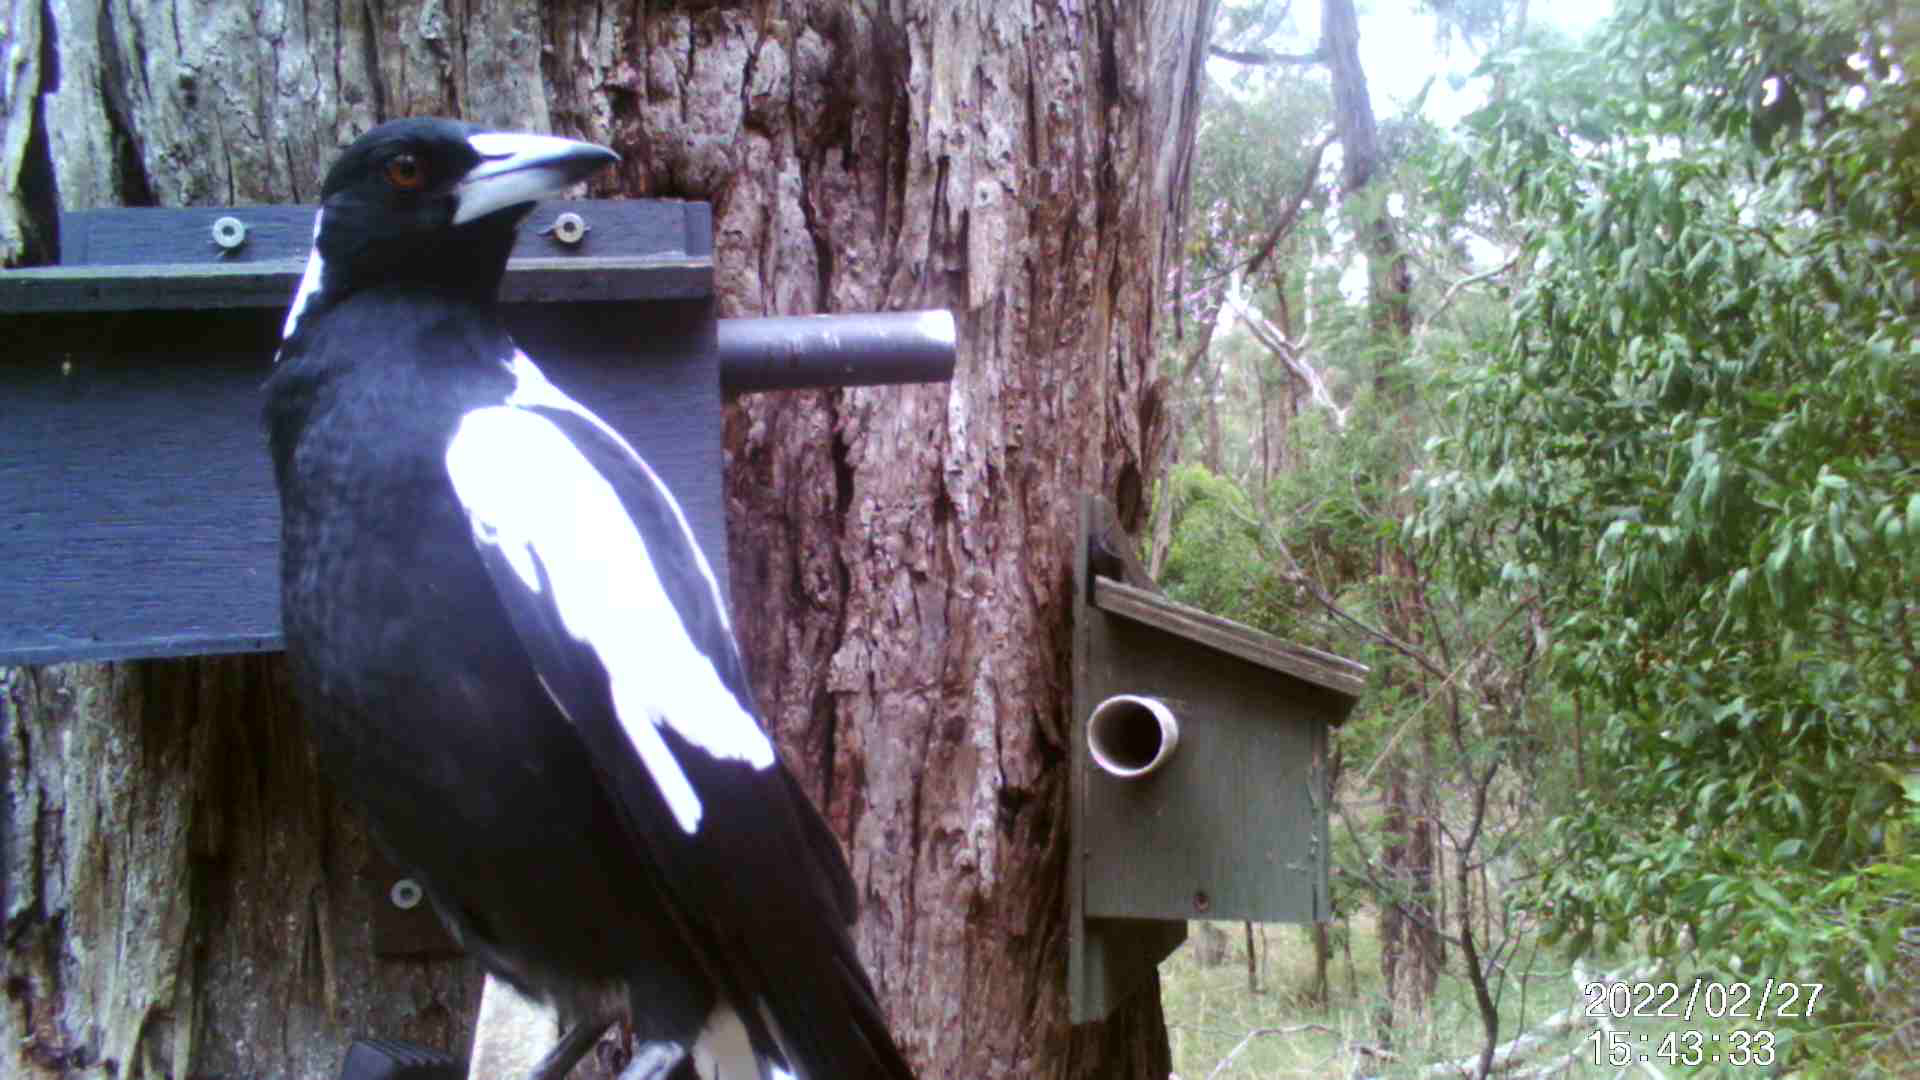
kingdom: Animalia
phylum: Chordata
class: Aves
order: Passeriformes
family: Cracticidae
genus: Gymnorhina
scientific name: Gymnorhina tibicen
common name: Australian magpie
